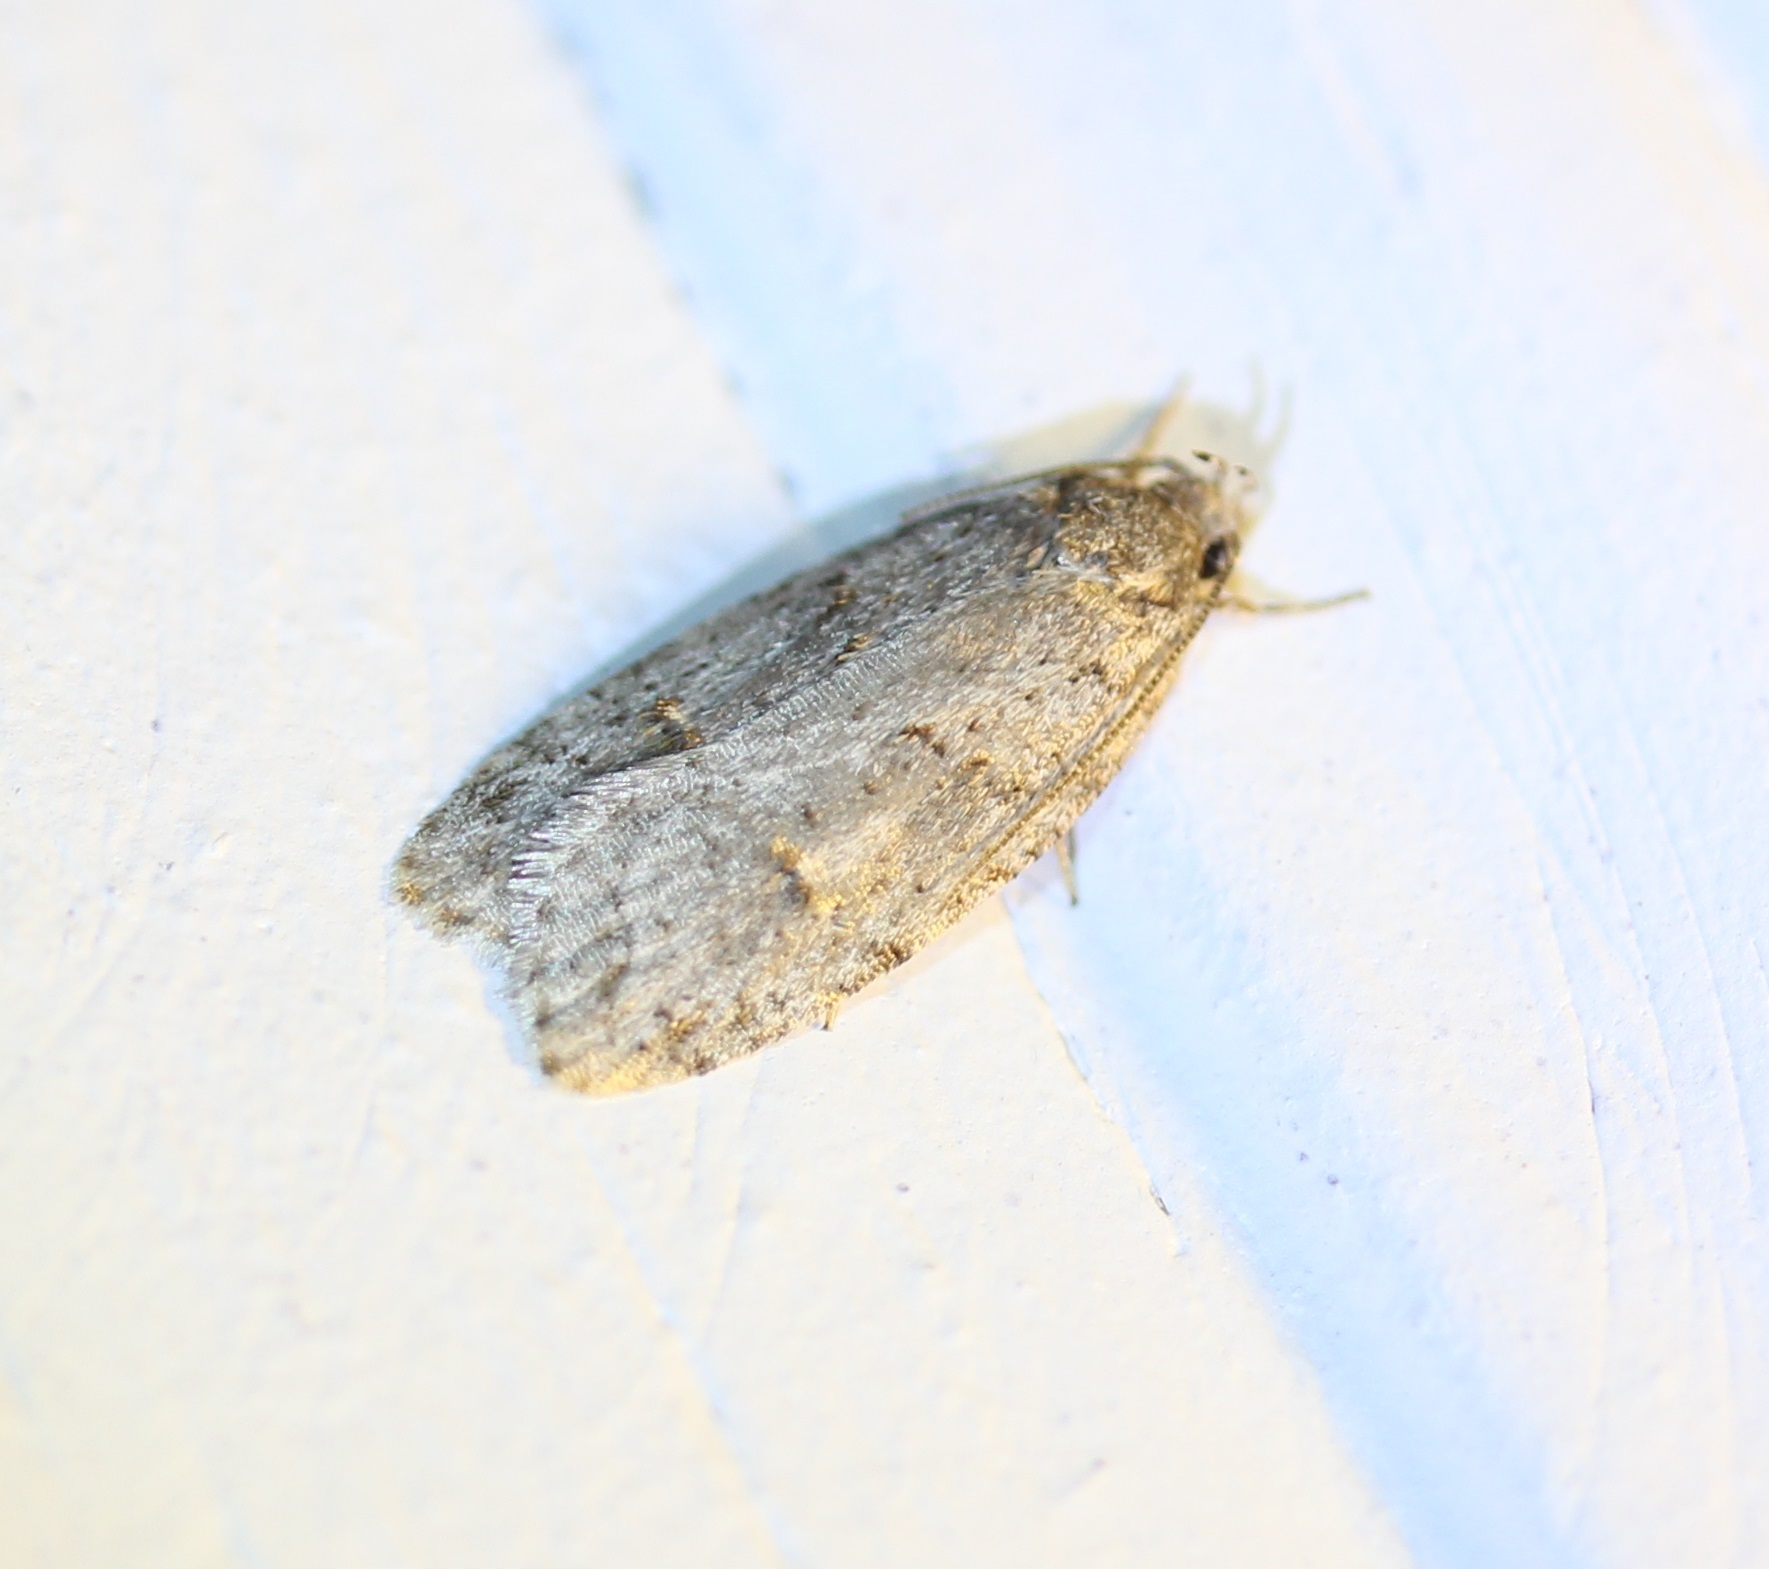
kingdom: Animalia
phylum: Arthropoda
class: Insecta
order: Lepidoptera
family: Depressariidae
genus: Bibarrambla
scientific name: Bibarrambla allenella
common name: Bog bibarrambla moth
